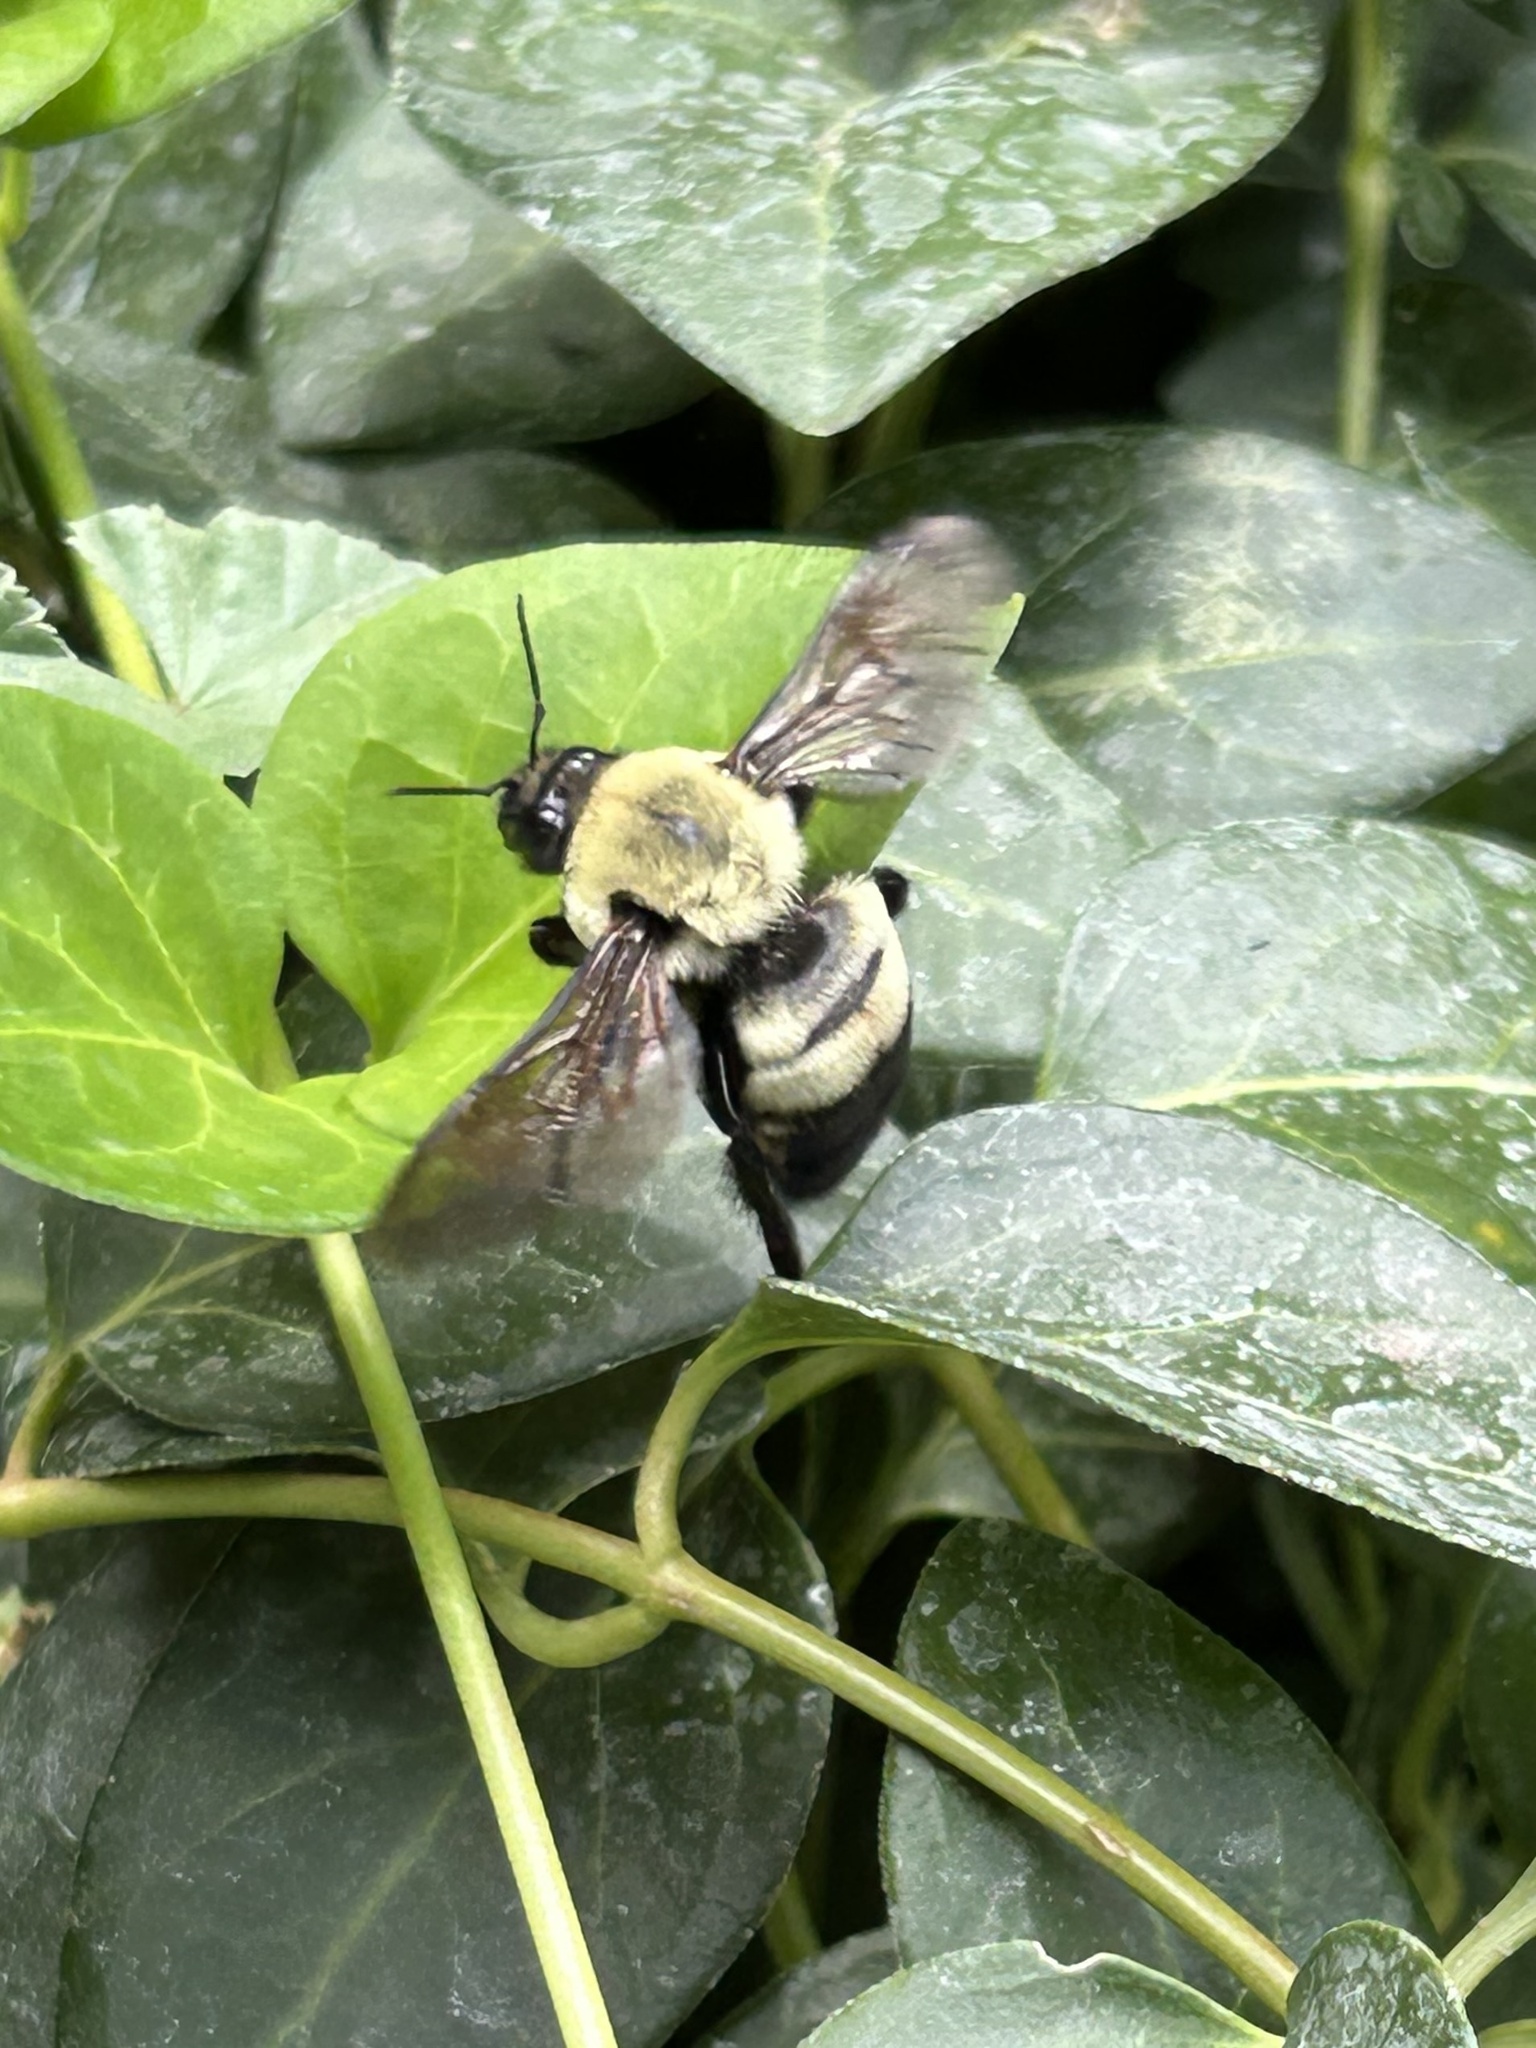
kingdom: Animalia
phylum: Arthropoda
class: Insecta
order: Hymenoptera
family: Apidae
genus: Bombus
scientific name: Bombus griseocollis
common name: Brown-belted bumble bee
